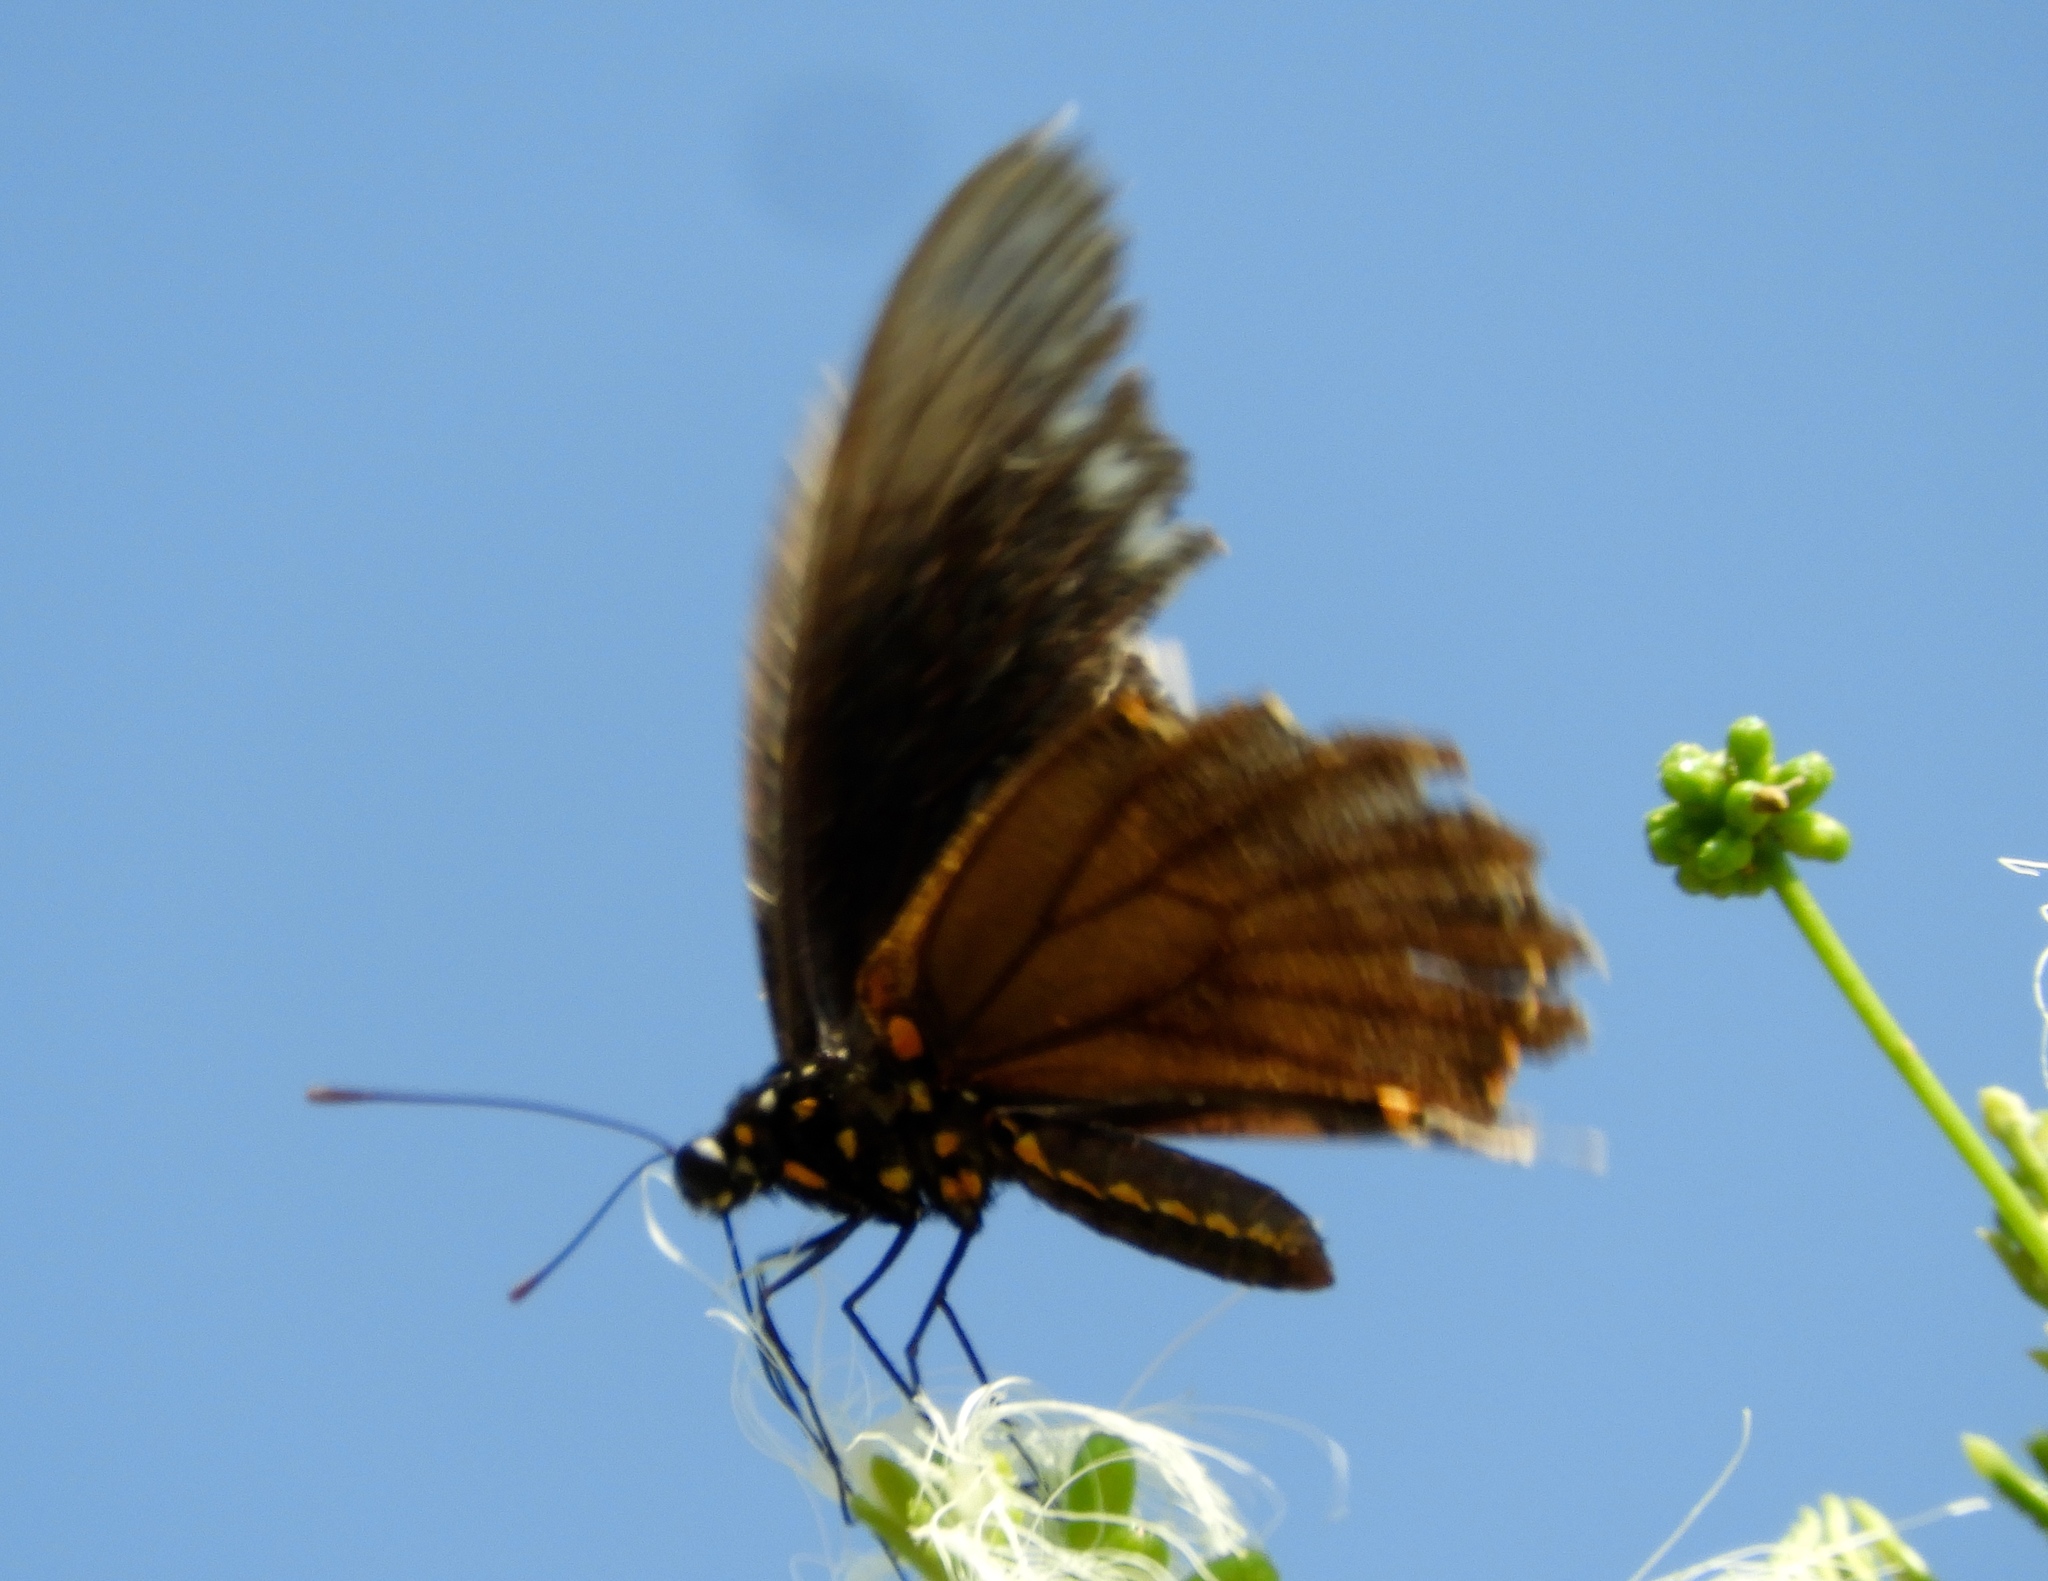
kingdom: Animalia
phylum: Arthropoda
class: Insecta
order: Lepidoptera
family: Papilionidae
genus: Battus
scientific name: Battus polydamas
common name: Polydamas swallowtail
